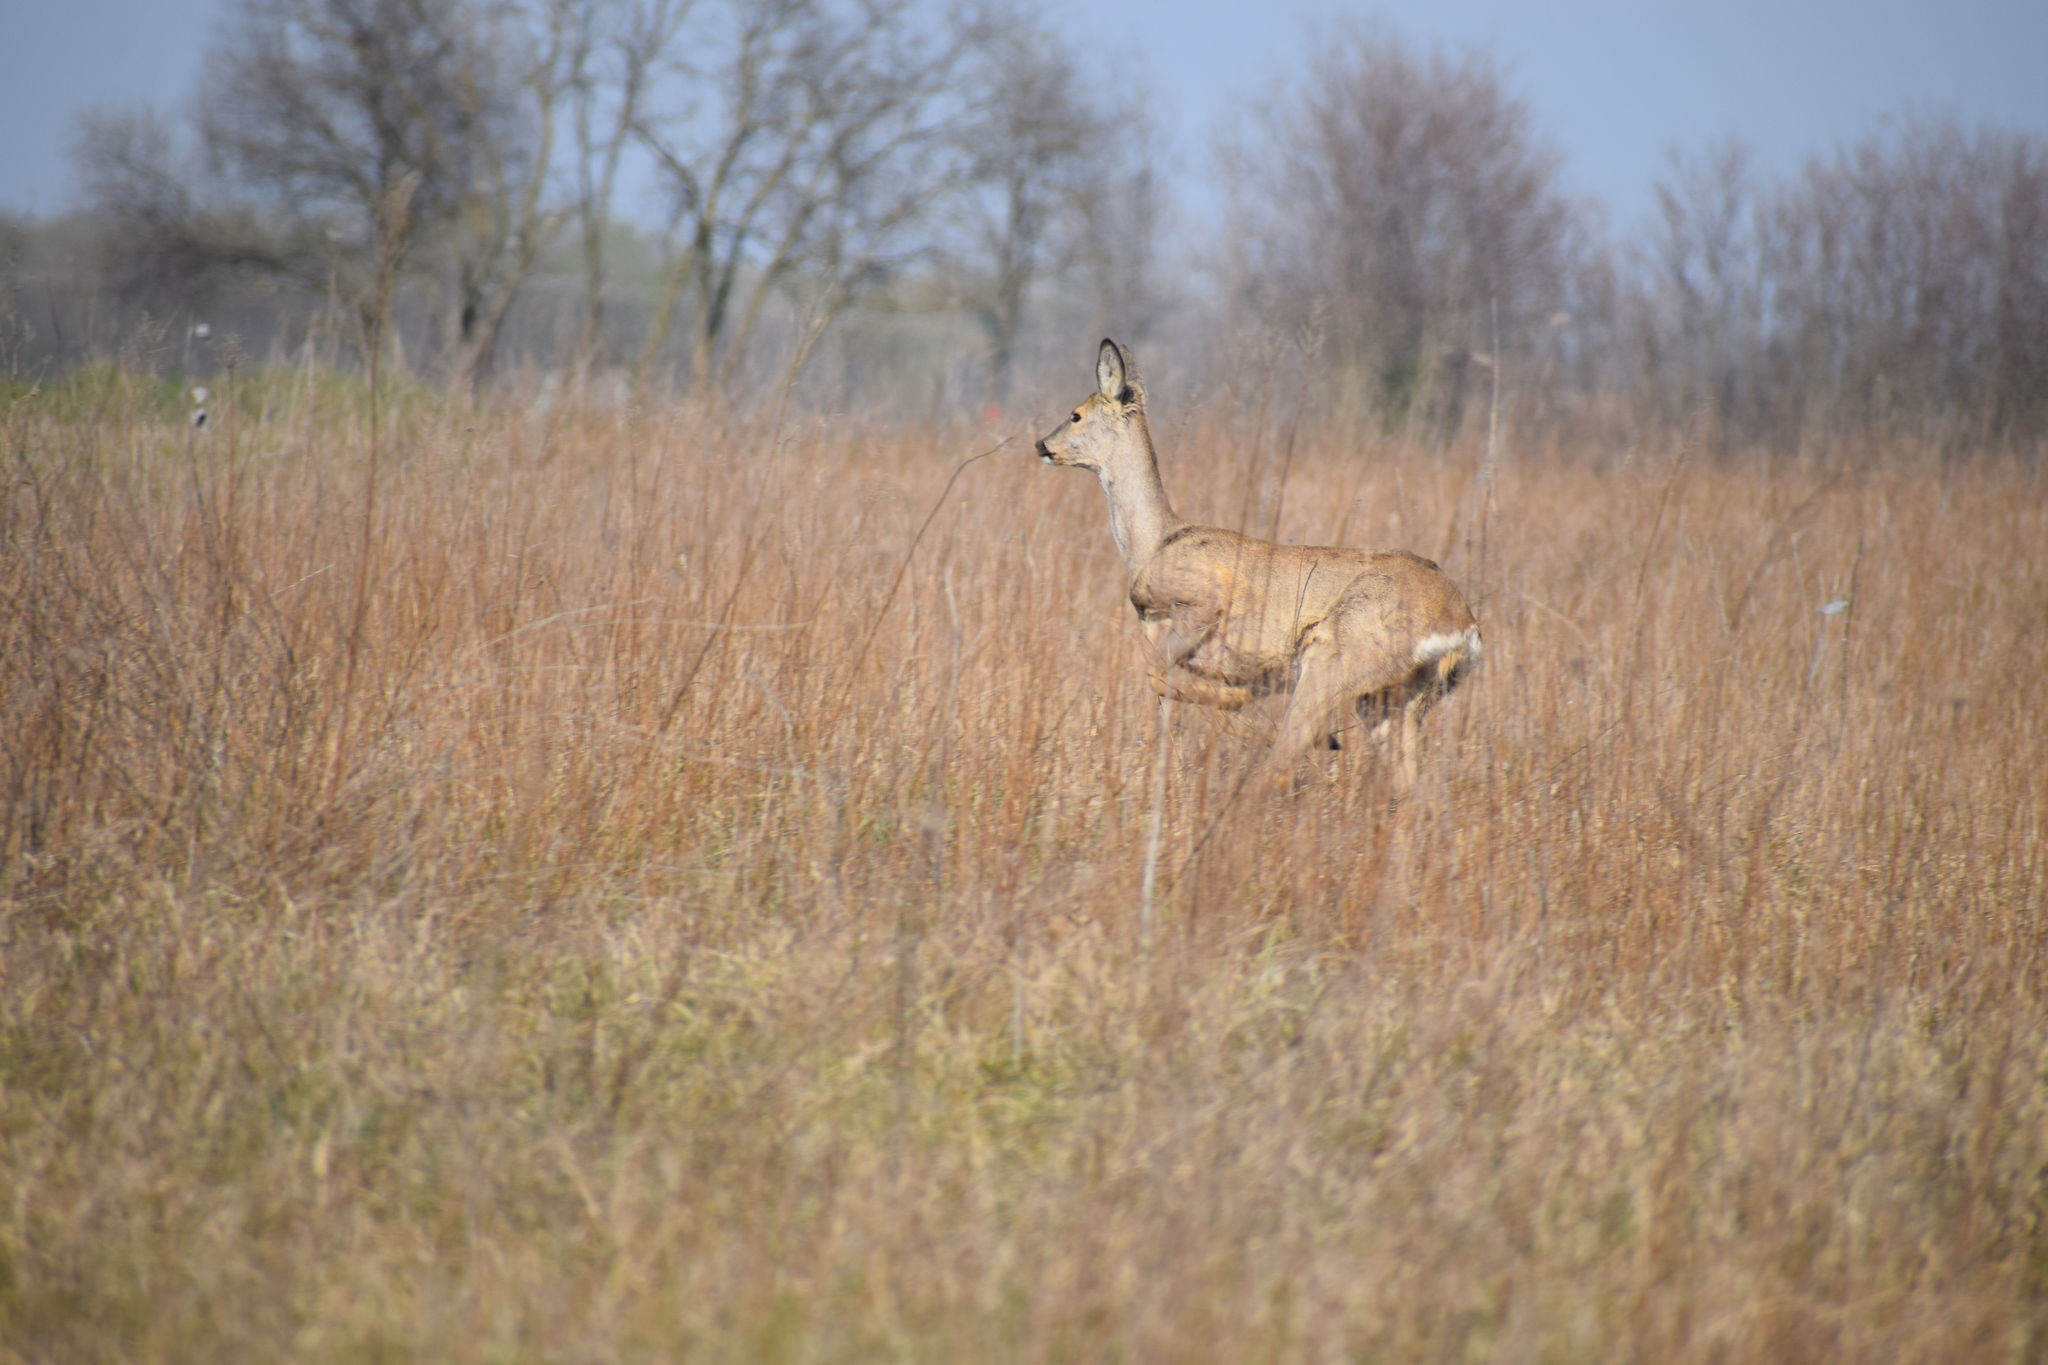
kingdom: Animalia
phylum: Chordata
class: Mammalia
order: Artiodactyla
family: Cervidae
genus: Capreolus
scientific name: Capreolus capreolus
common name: Western roe deer
